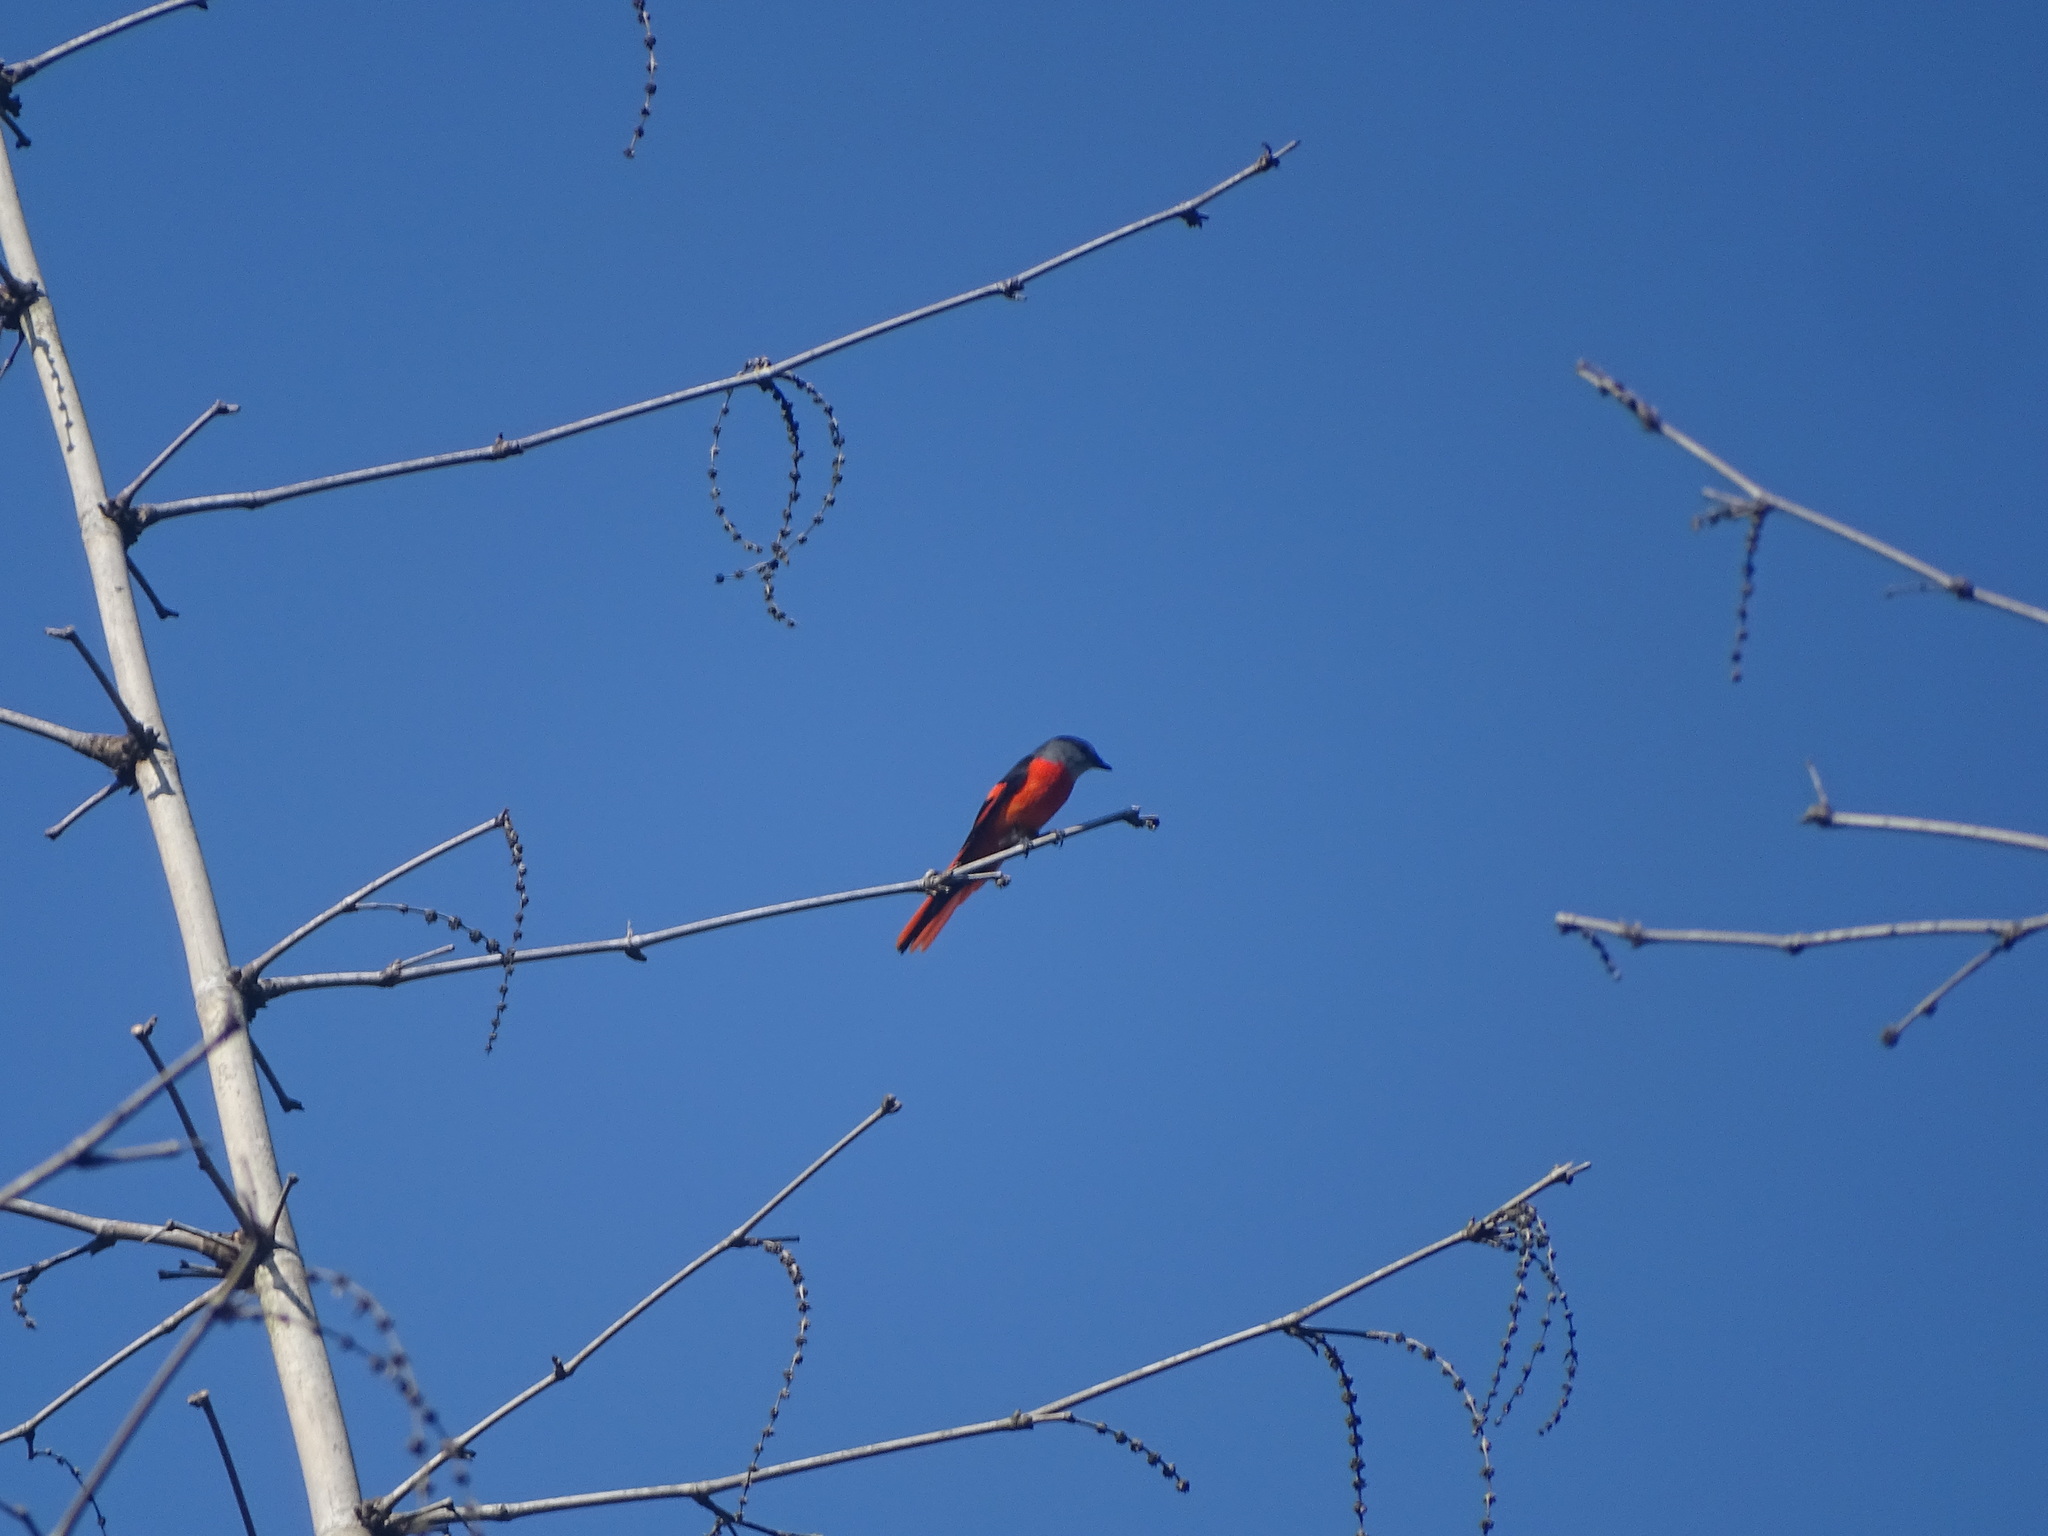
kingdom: Animalia
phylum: Chordata
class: Aves
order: Passeriformes
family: Campephagidae
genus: Pericrocotus
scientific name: Pericrocotus solaris
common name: Grey-chinned minivet
